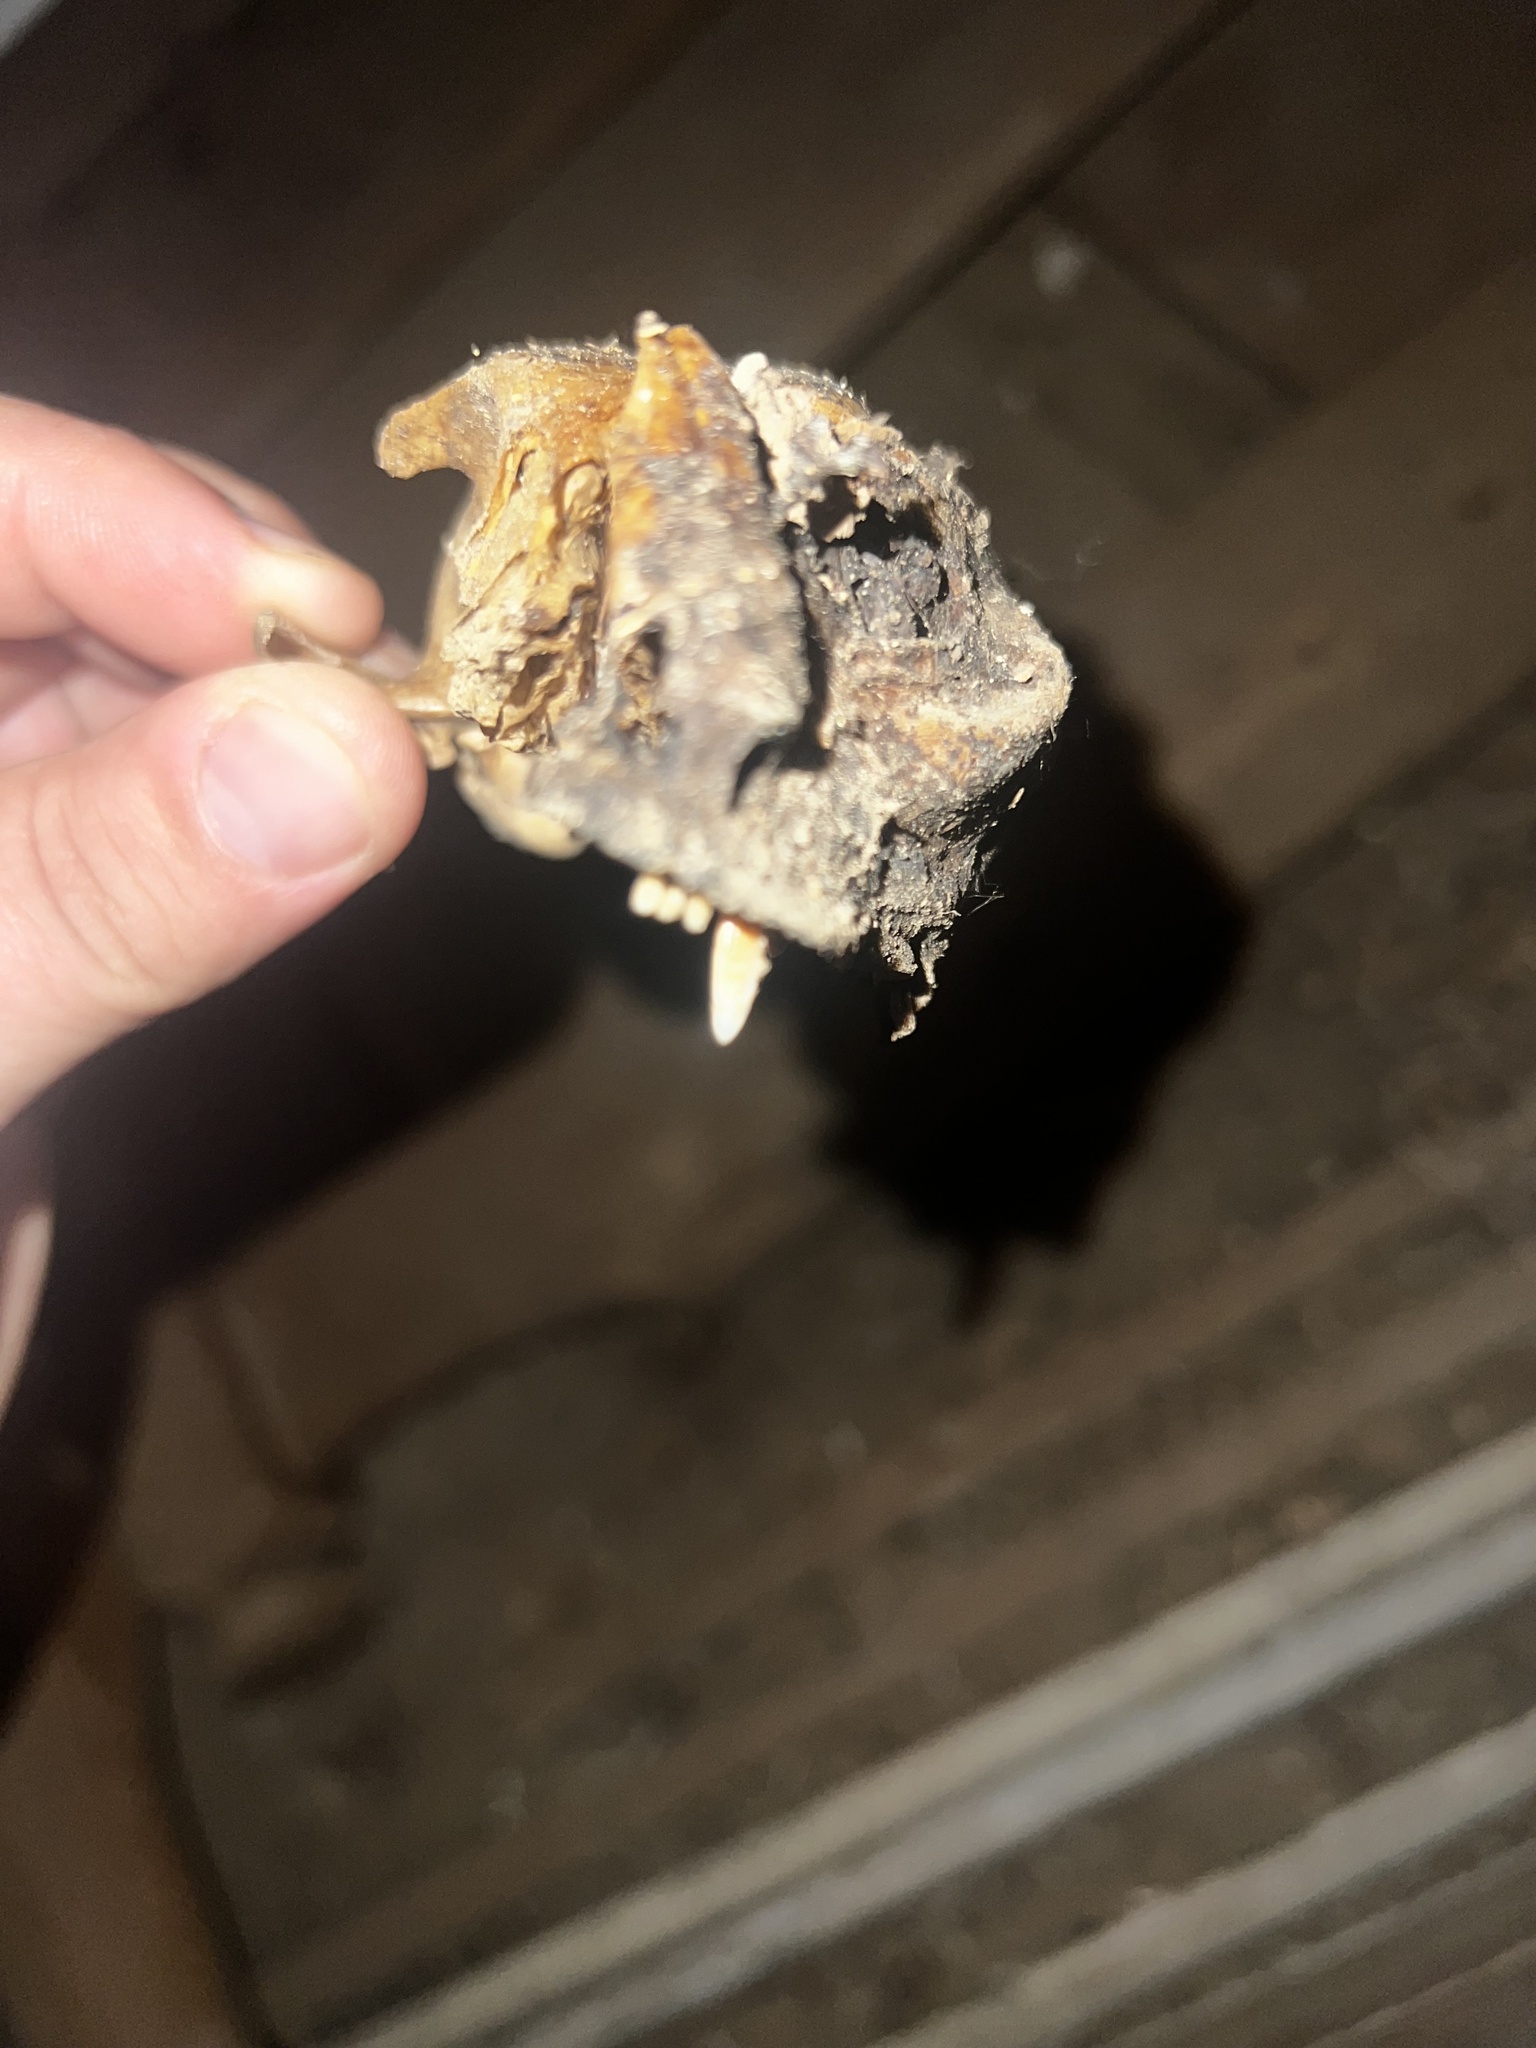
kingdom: Animalia
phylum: Chordata
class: Mammalia
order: Carnivora
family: Felidae
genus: Felis
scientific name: Felis catus
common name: Domestic cat
